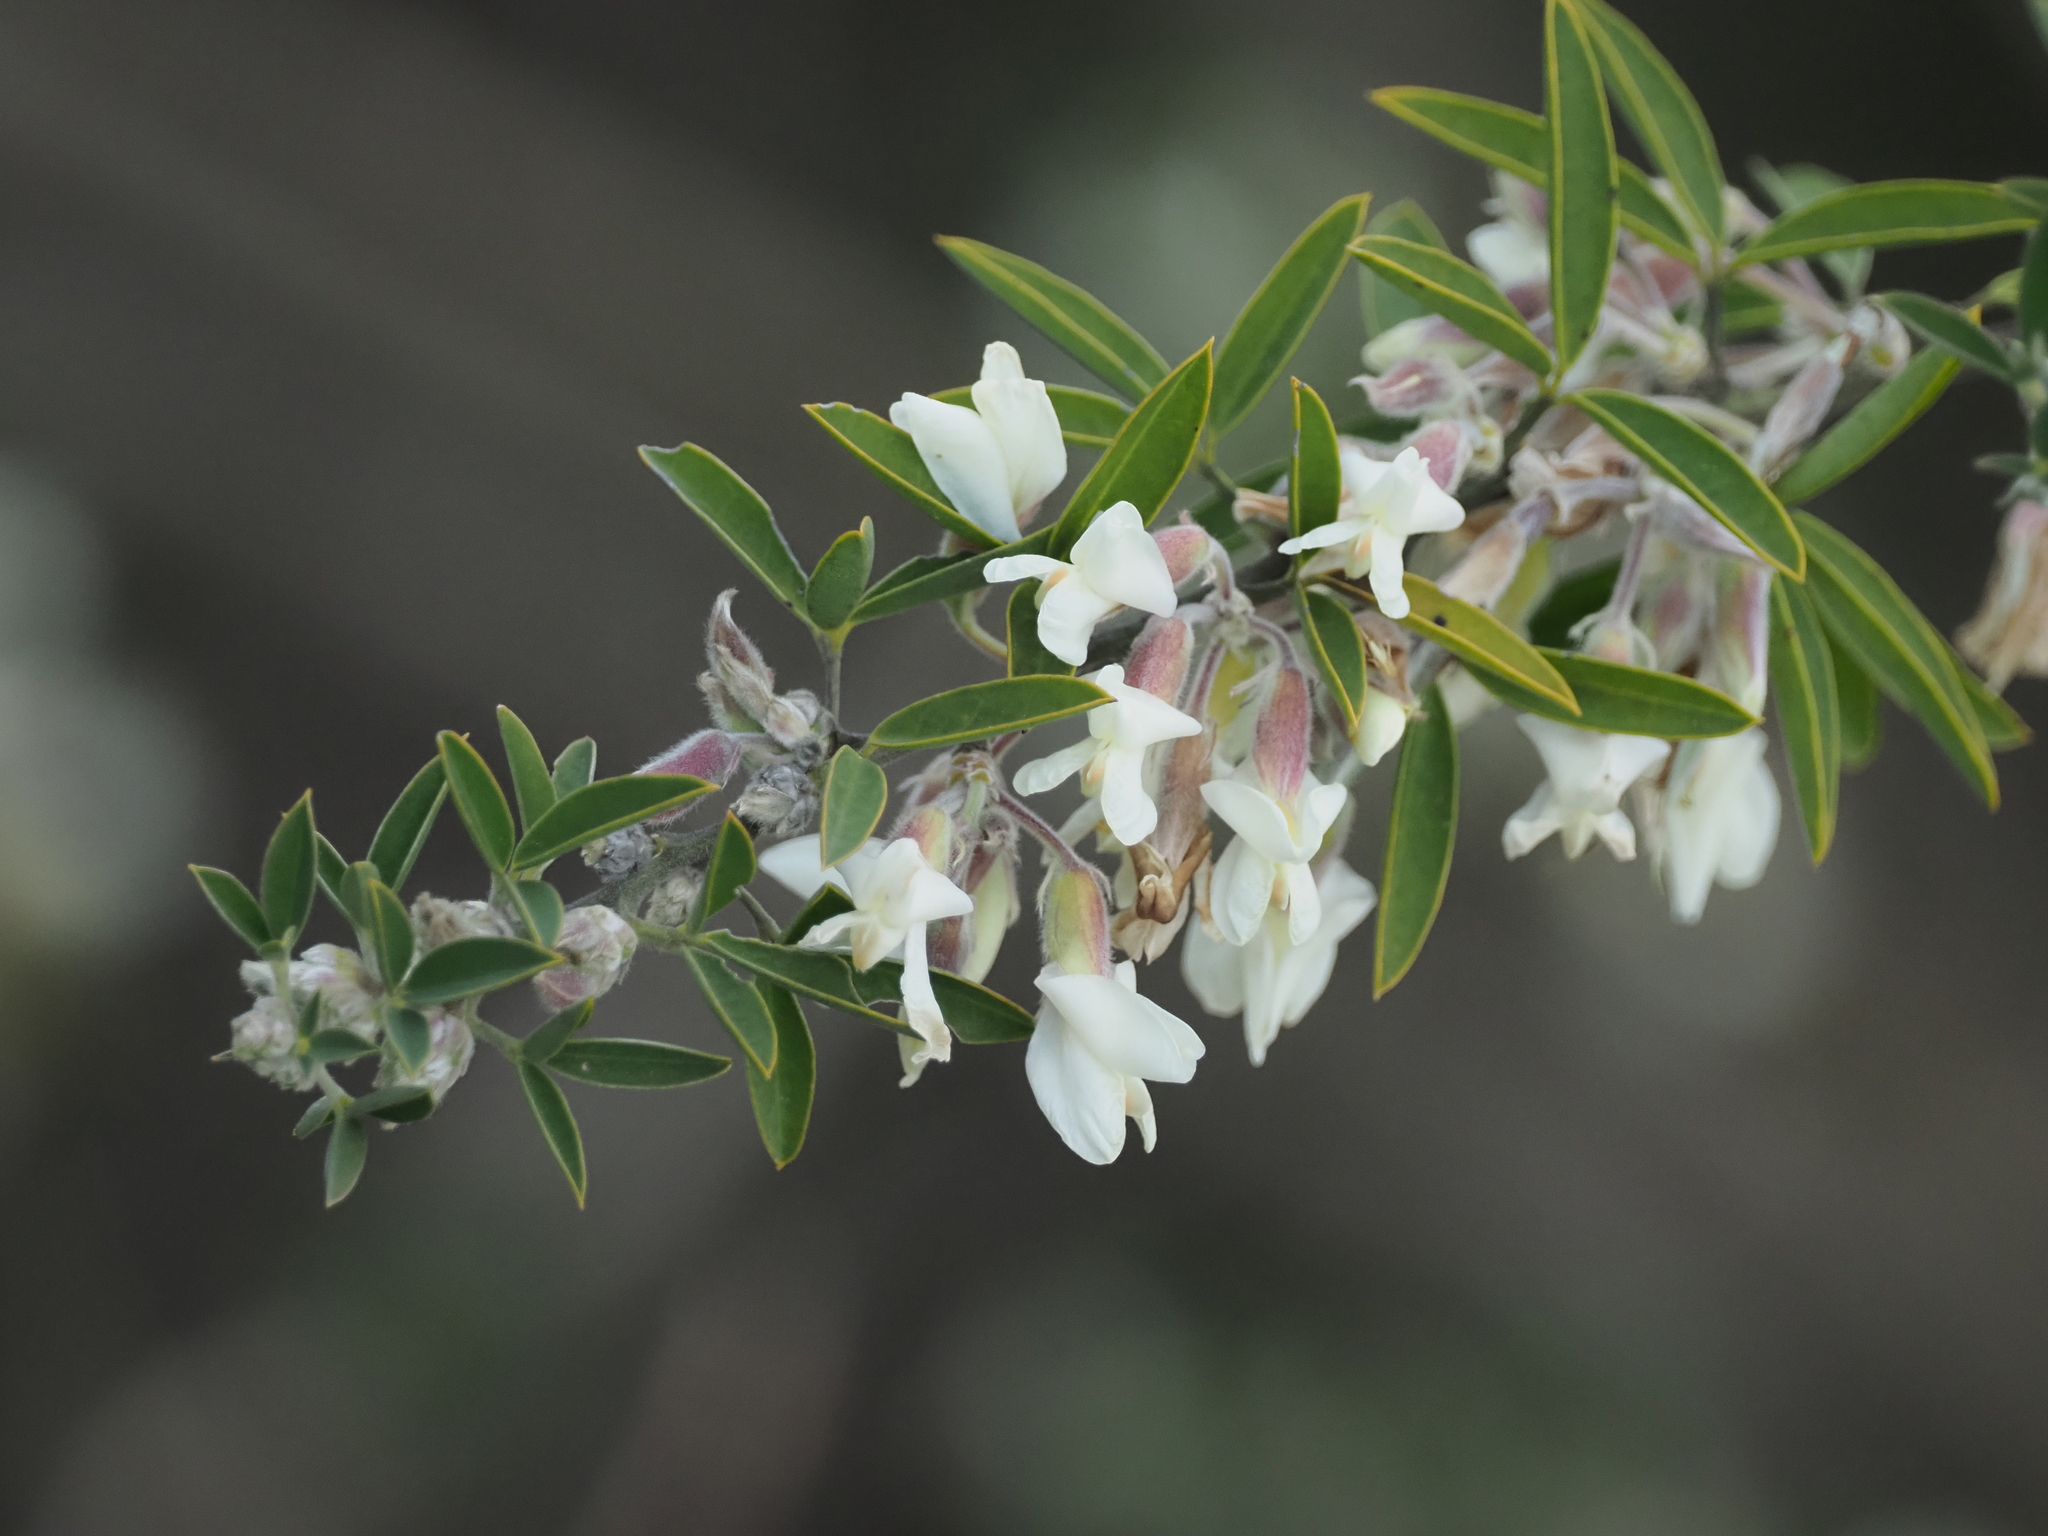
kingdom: Plantae
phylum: Tracheophyta
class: Magnoliopsida
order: Fabales
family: Fabaceae
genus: Chamaecytisus
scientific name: Chamaecytisus prolifer
